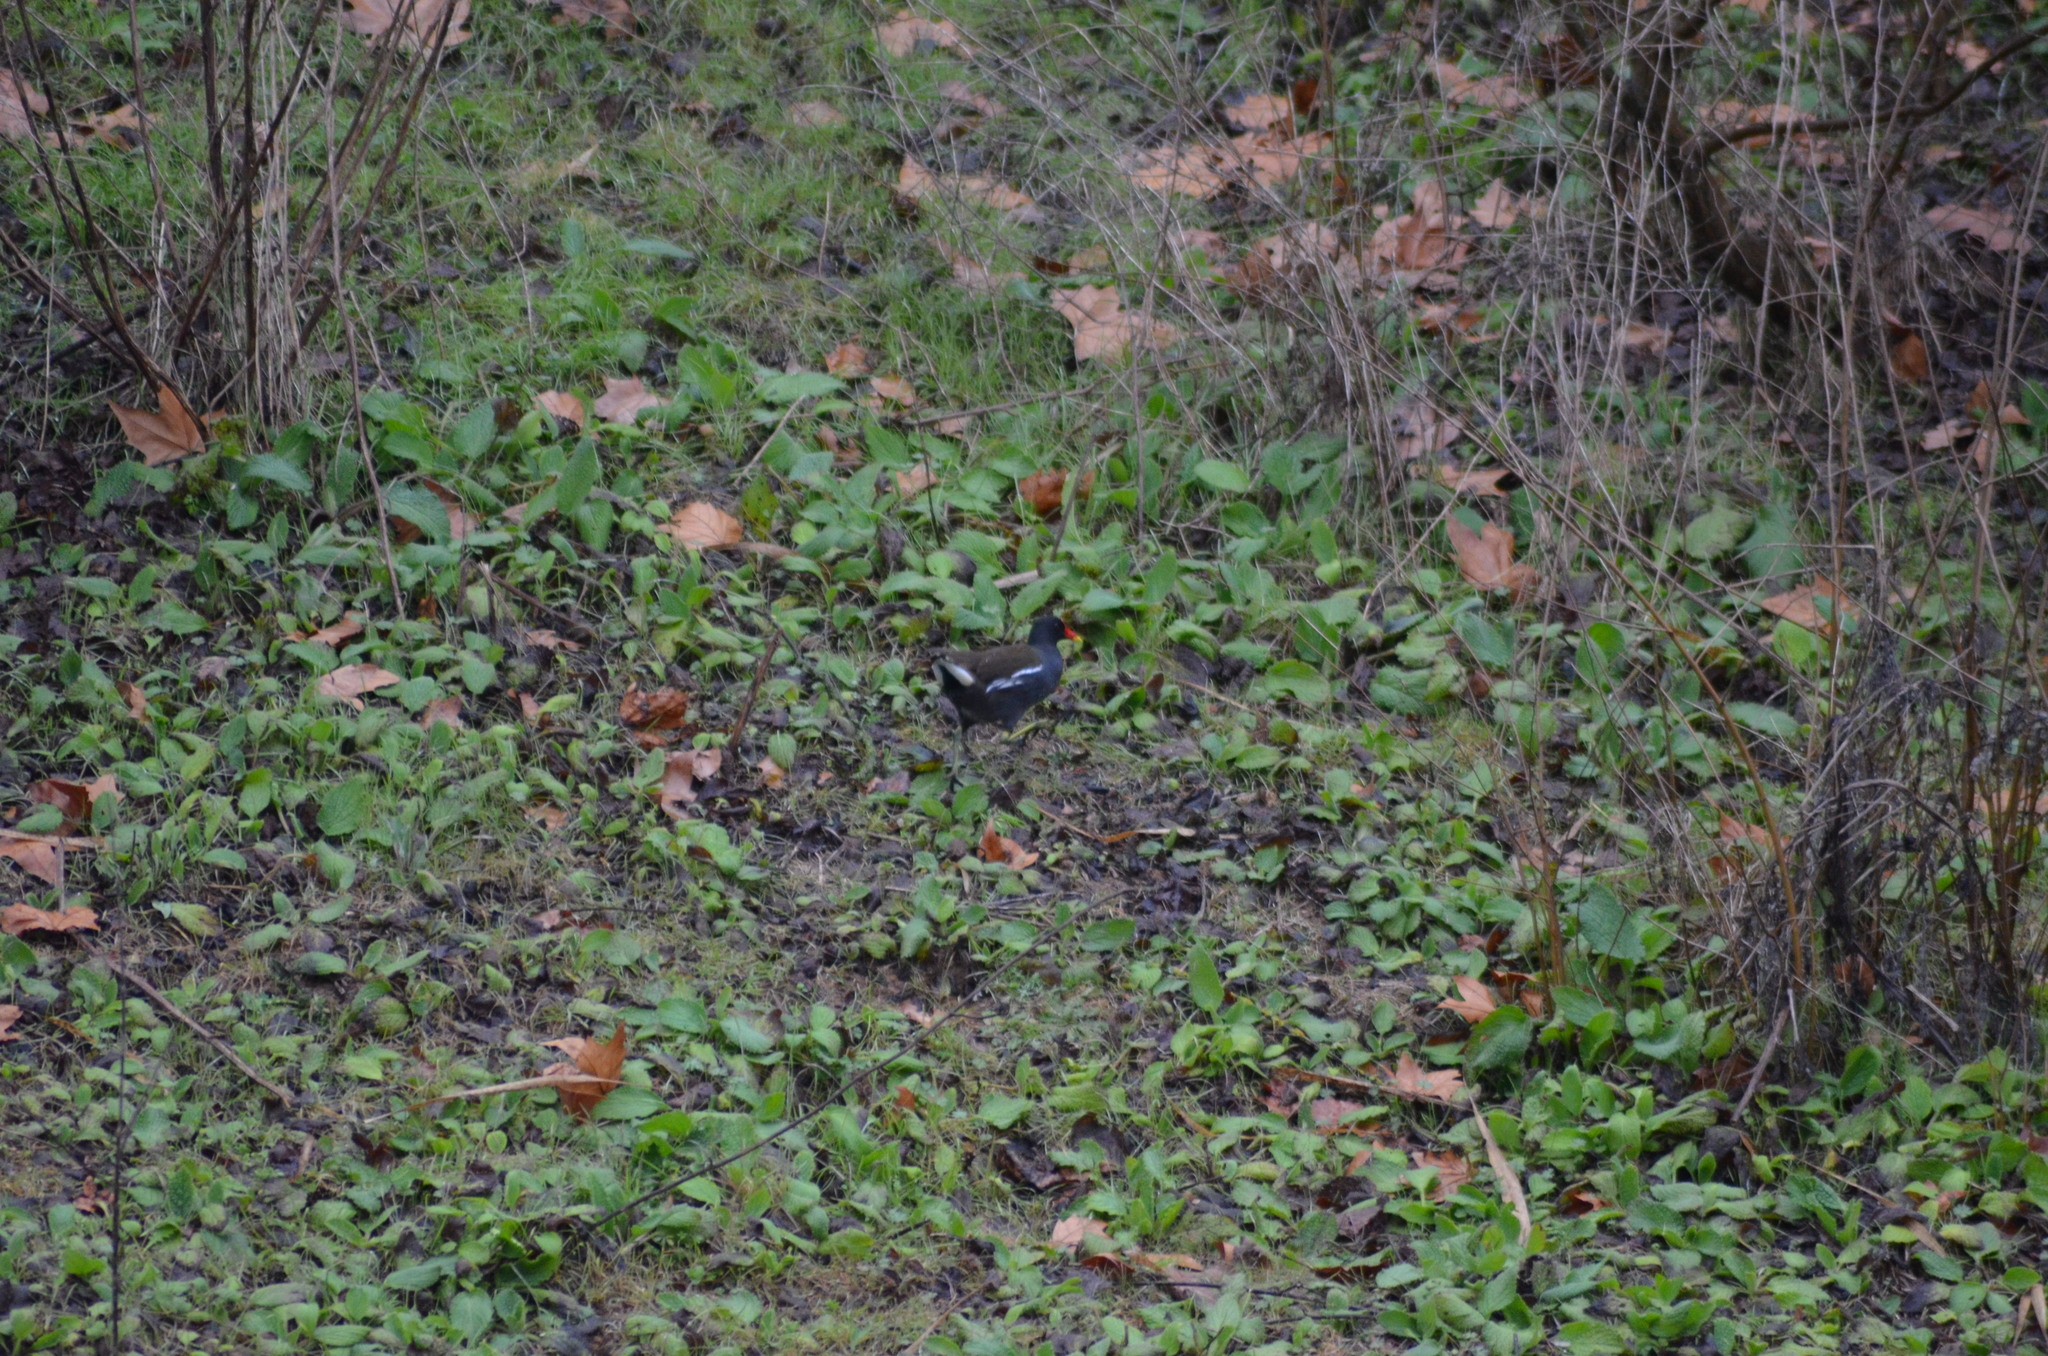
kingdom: Animalia
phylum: Chordata
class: Aves
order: Gruiformes
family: Rallidae
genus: Gallinula
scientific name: Gallinula chloropus
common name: Common moorhen
